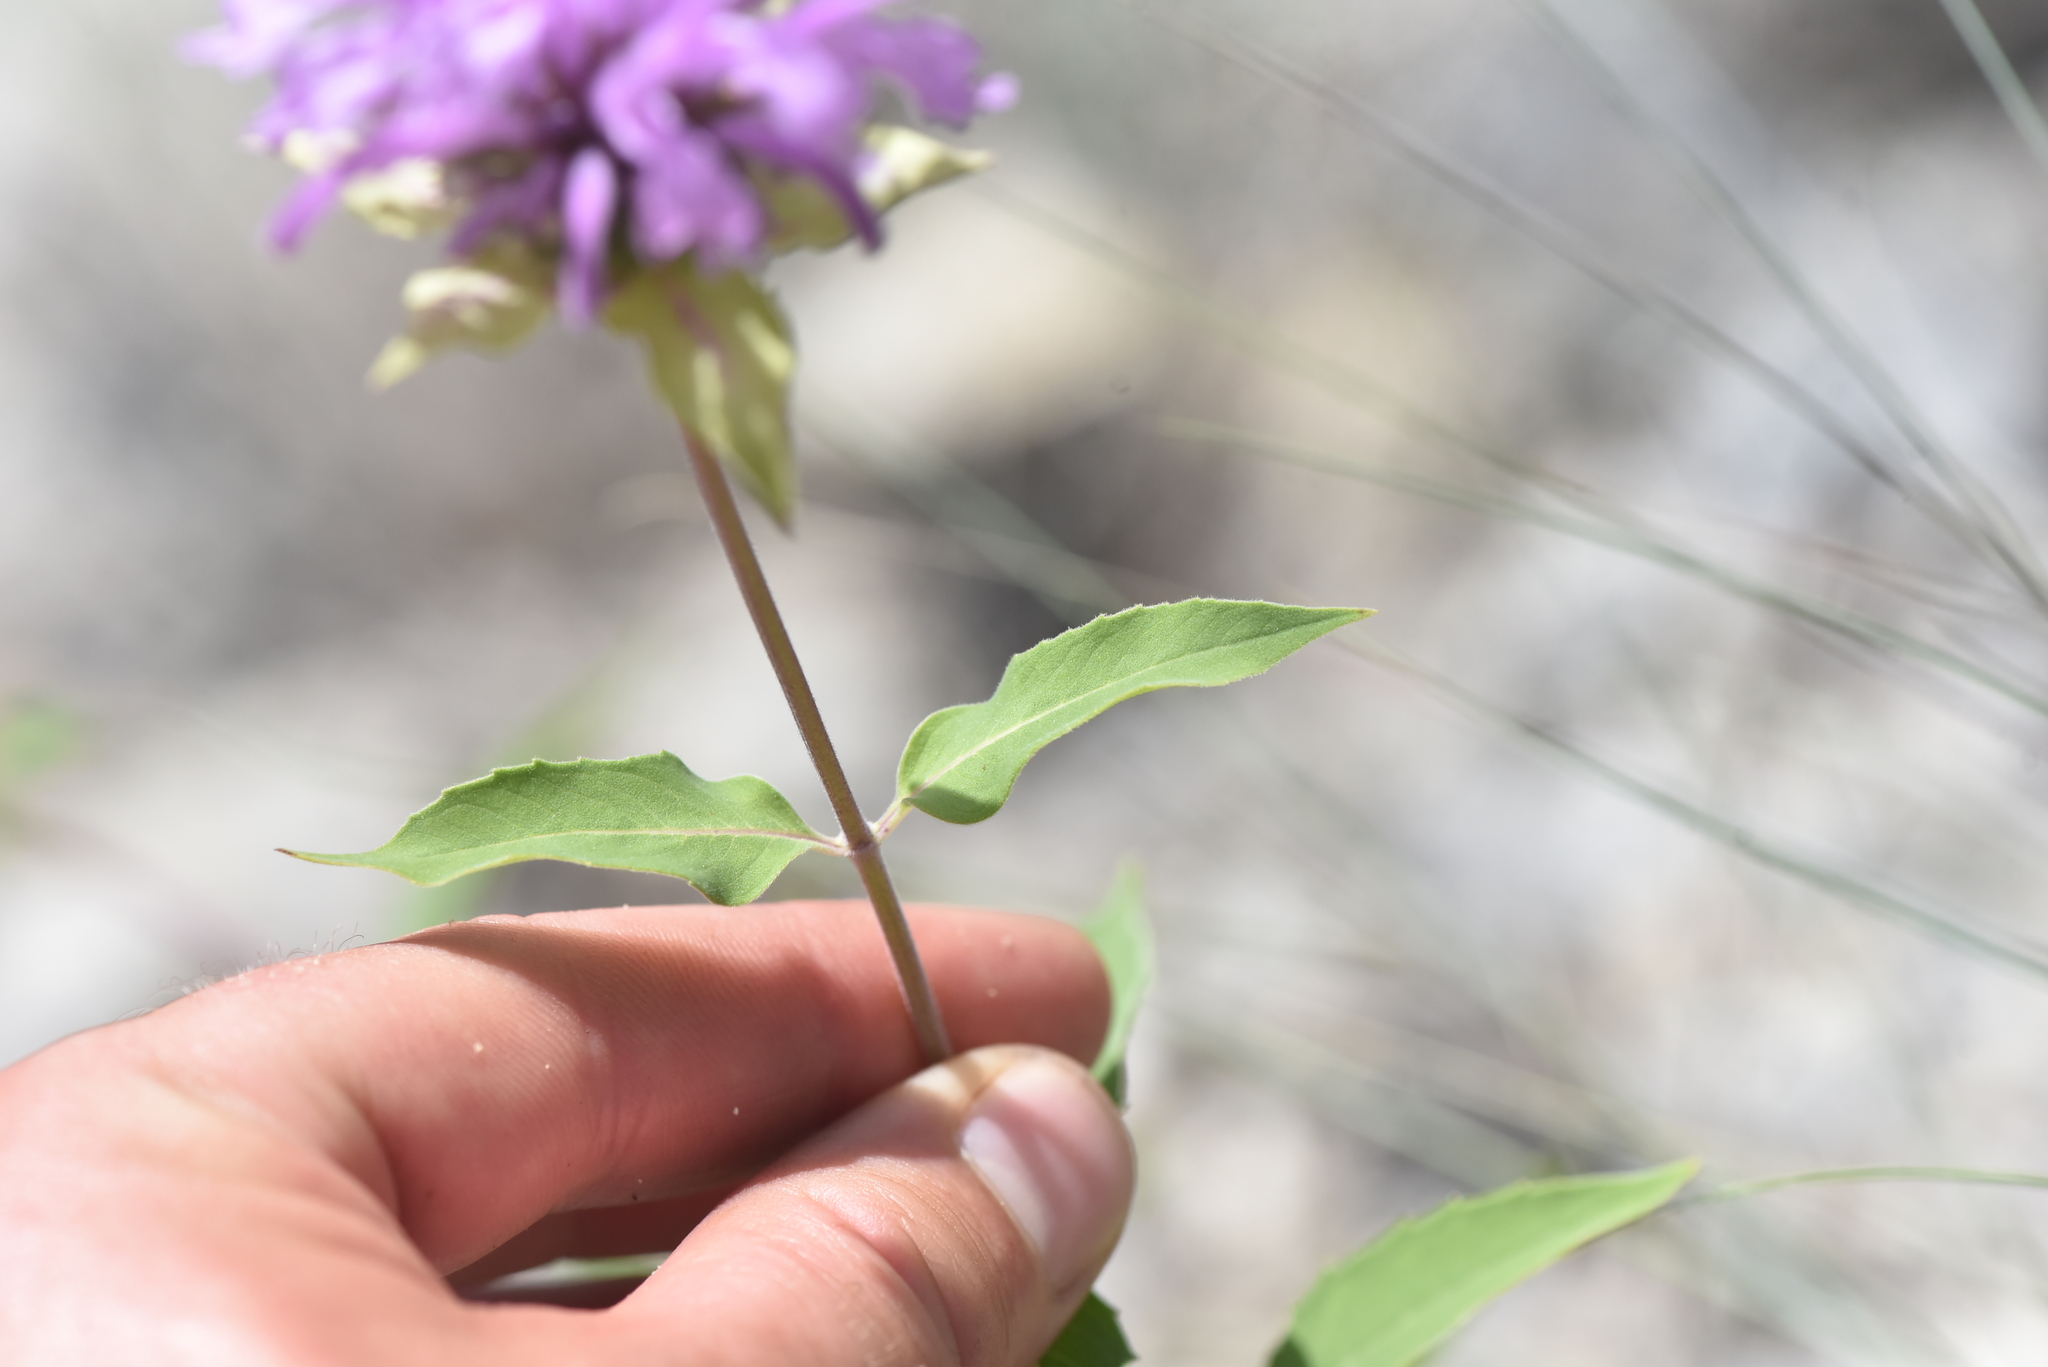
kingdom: Plantae
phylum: Tracheophyta
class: Magnoliopsida
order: Lamiales
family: Lamiaceae
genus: Monarda
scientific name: Monarda fistulosa
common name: Purple beebalm
